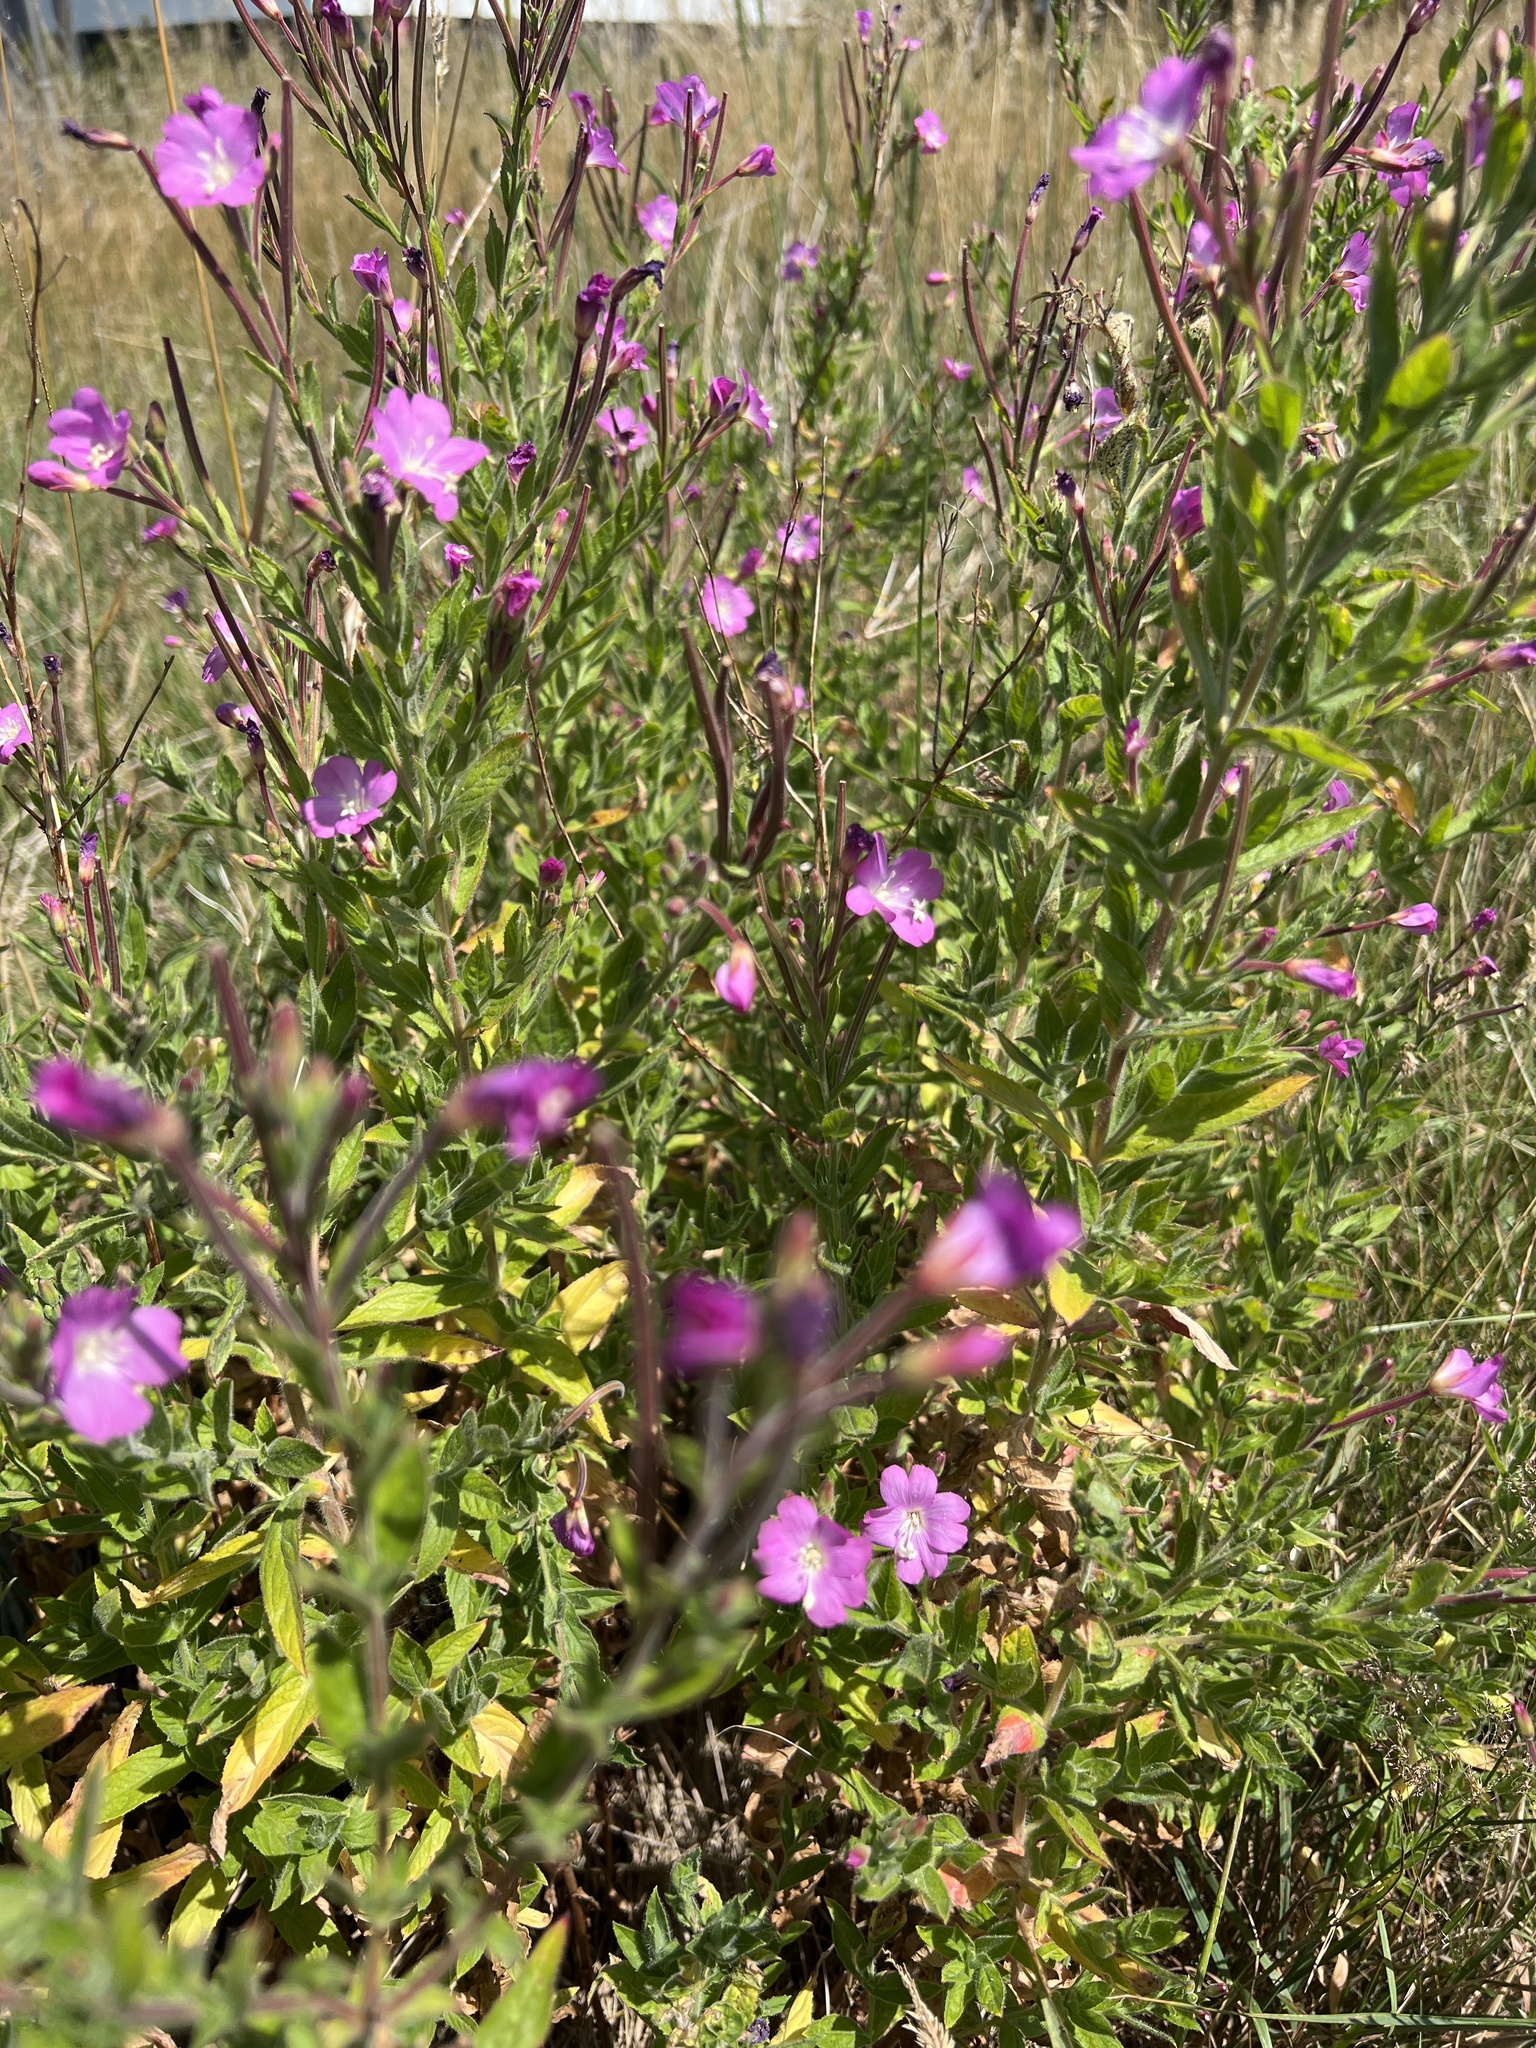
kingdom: Plantae
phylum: Tracheophyta
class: Magnoliopsida
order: Myrtales
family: Onagraceae
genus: Epilobium
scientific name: Epilobium hirsutum
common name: Great willowherb
